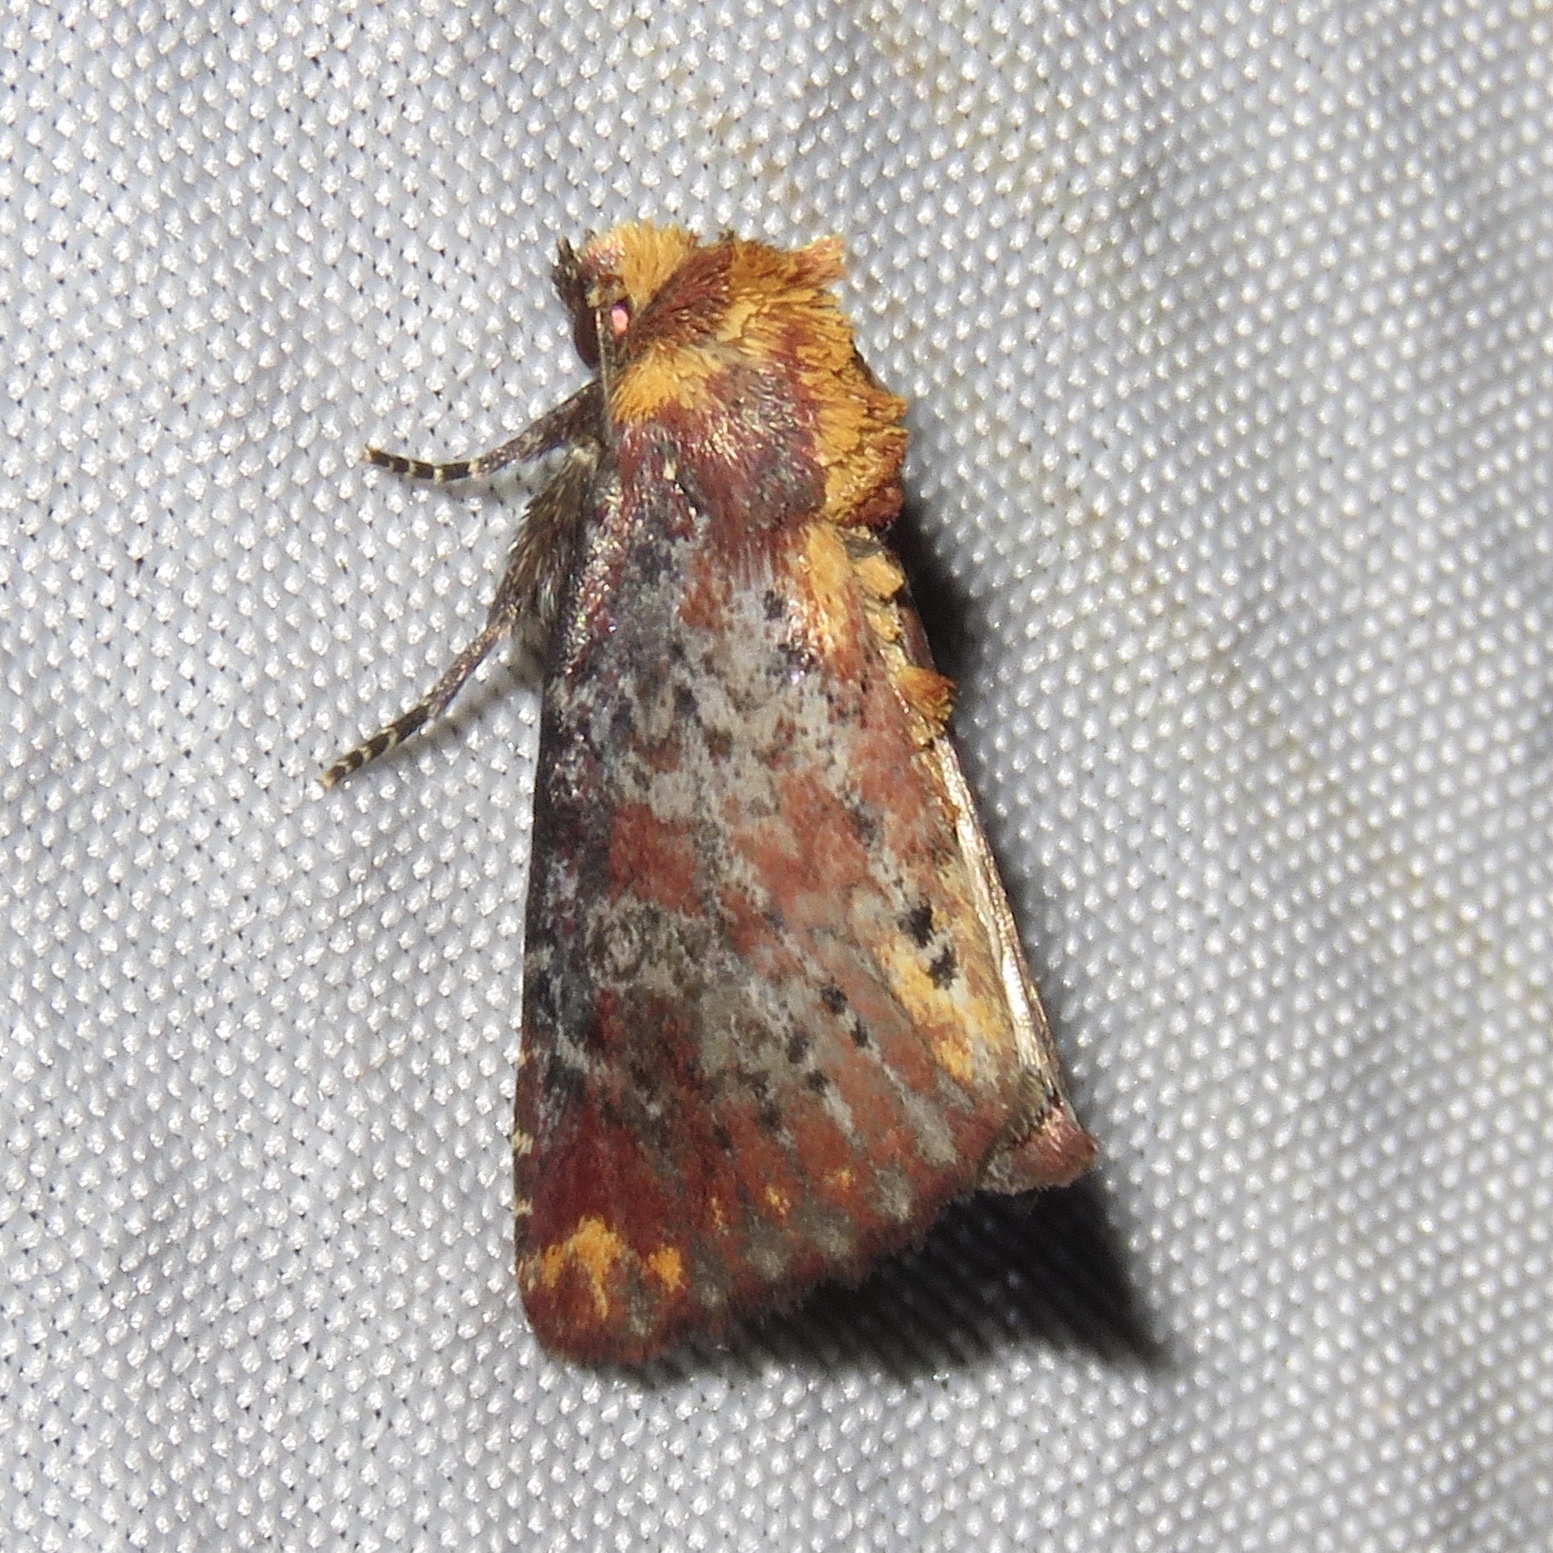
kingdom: Animalia
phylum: Arthropoda
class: Insecta
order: Lepidoptera
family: Noctuidae
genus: Achatodes
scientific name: Achatodes zeae
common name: Elder shoot borer
